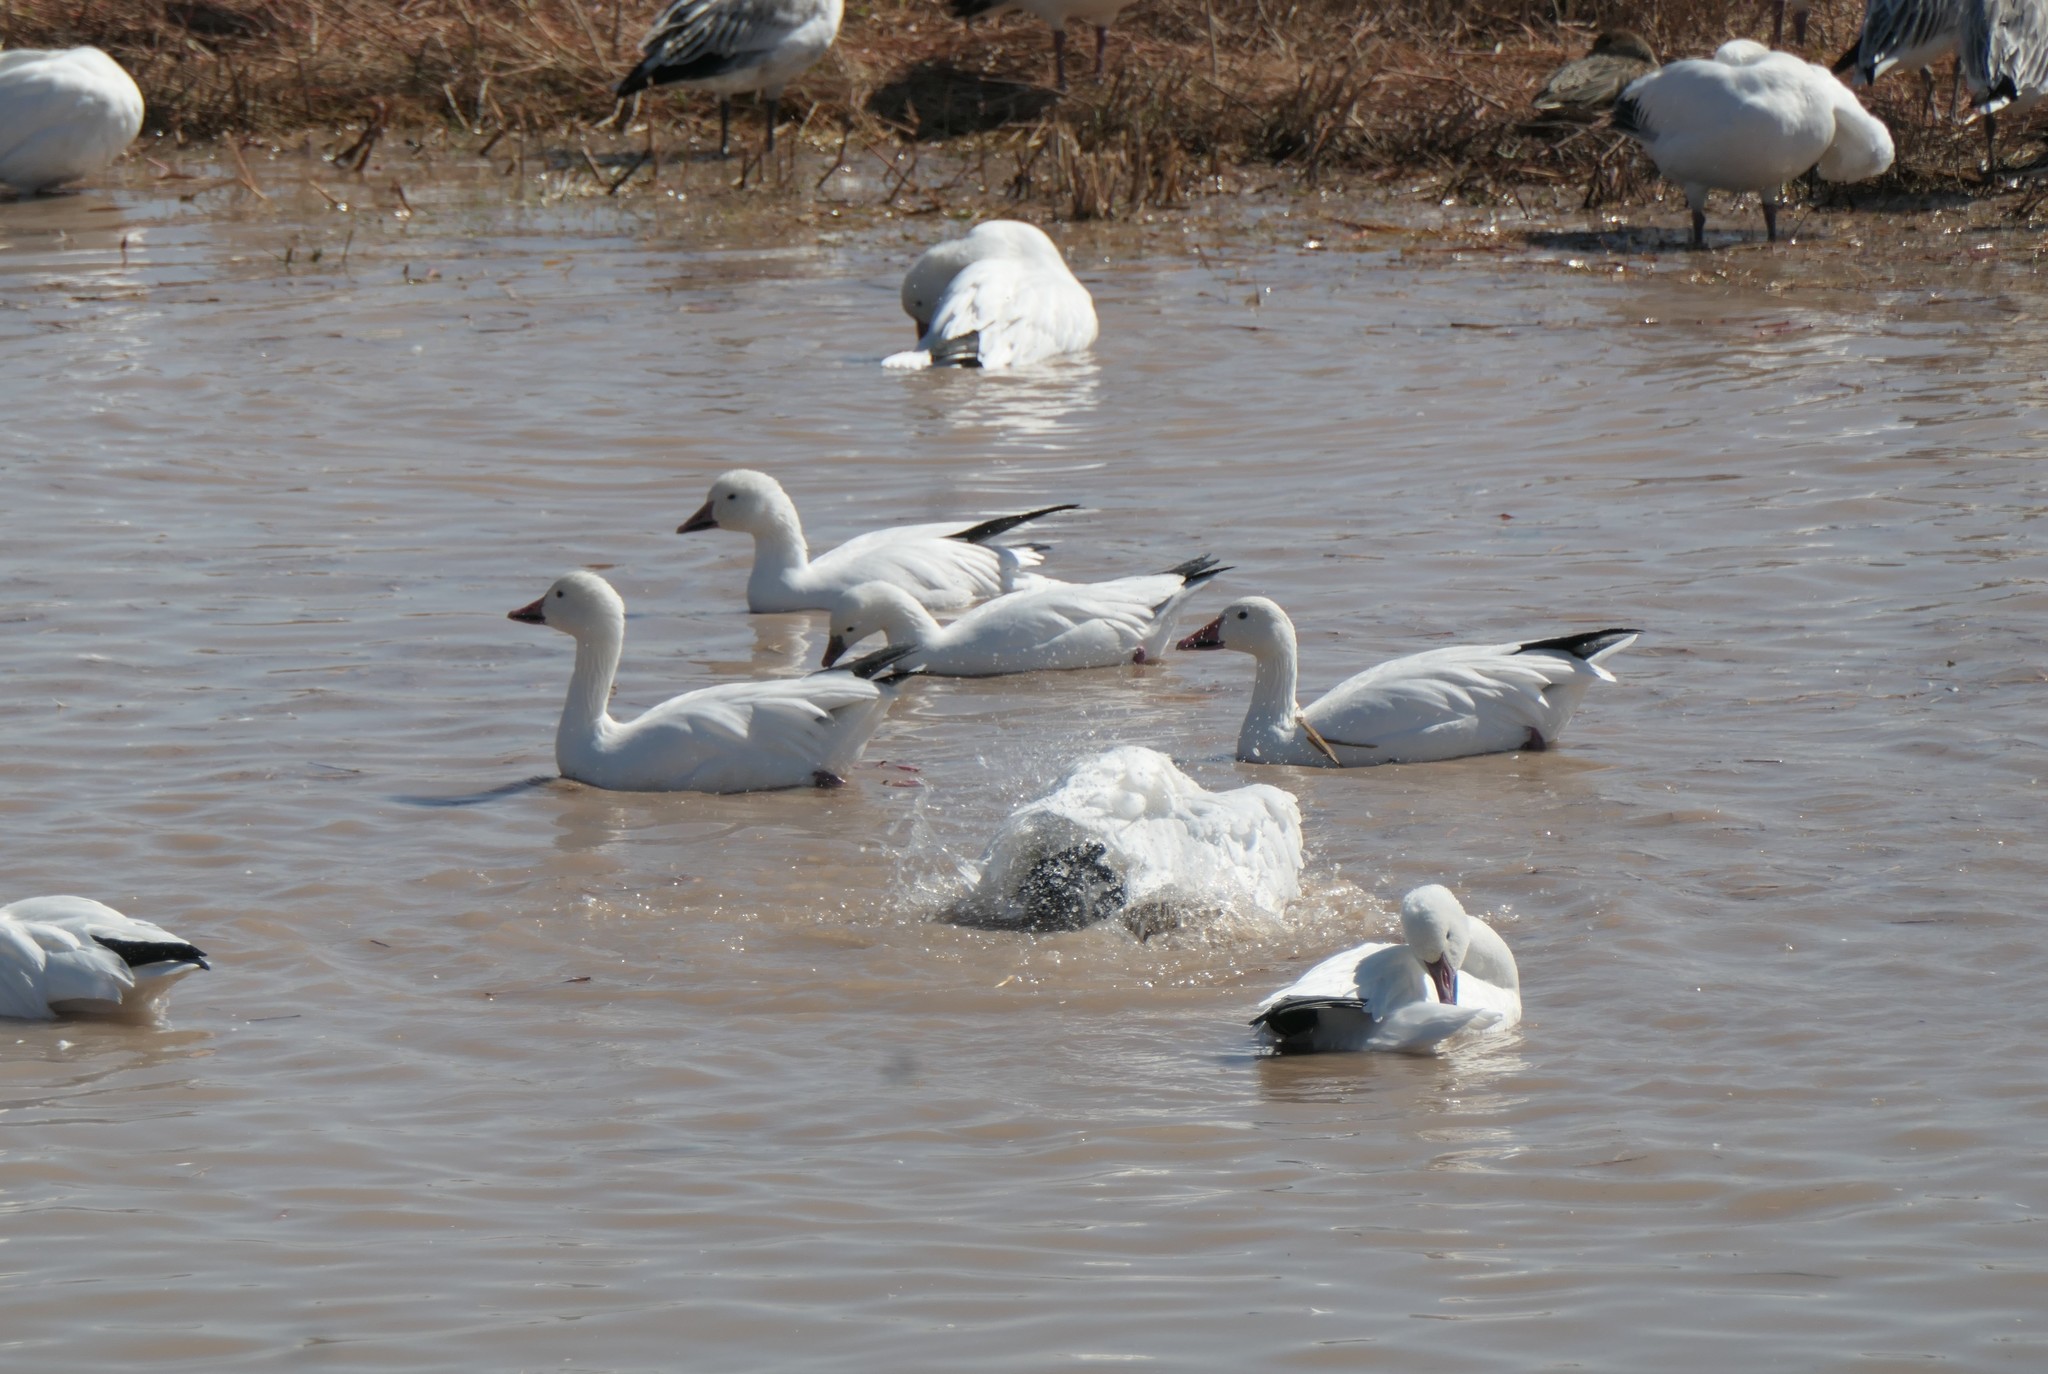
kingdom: Animalia
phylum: Chordata
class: Aves
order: Anseriformes
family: Anatidae
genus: Anser
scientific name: Anser caerulescens
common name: Snow goose
